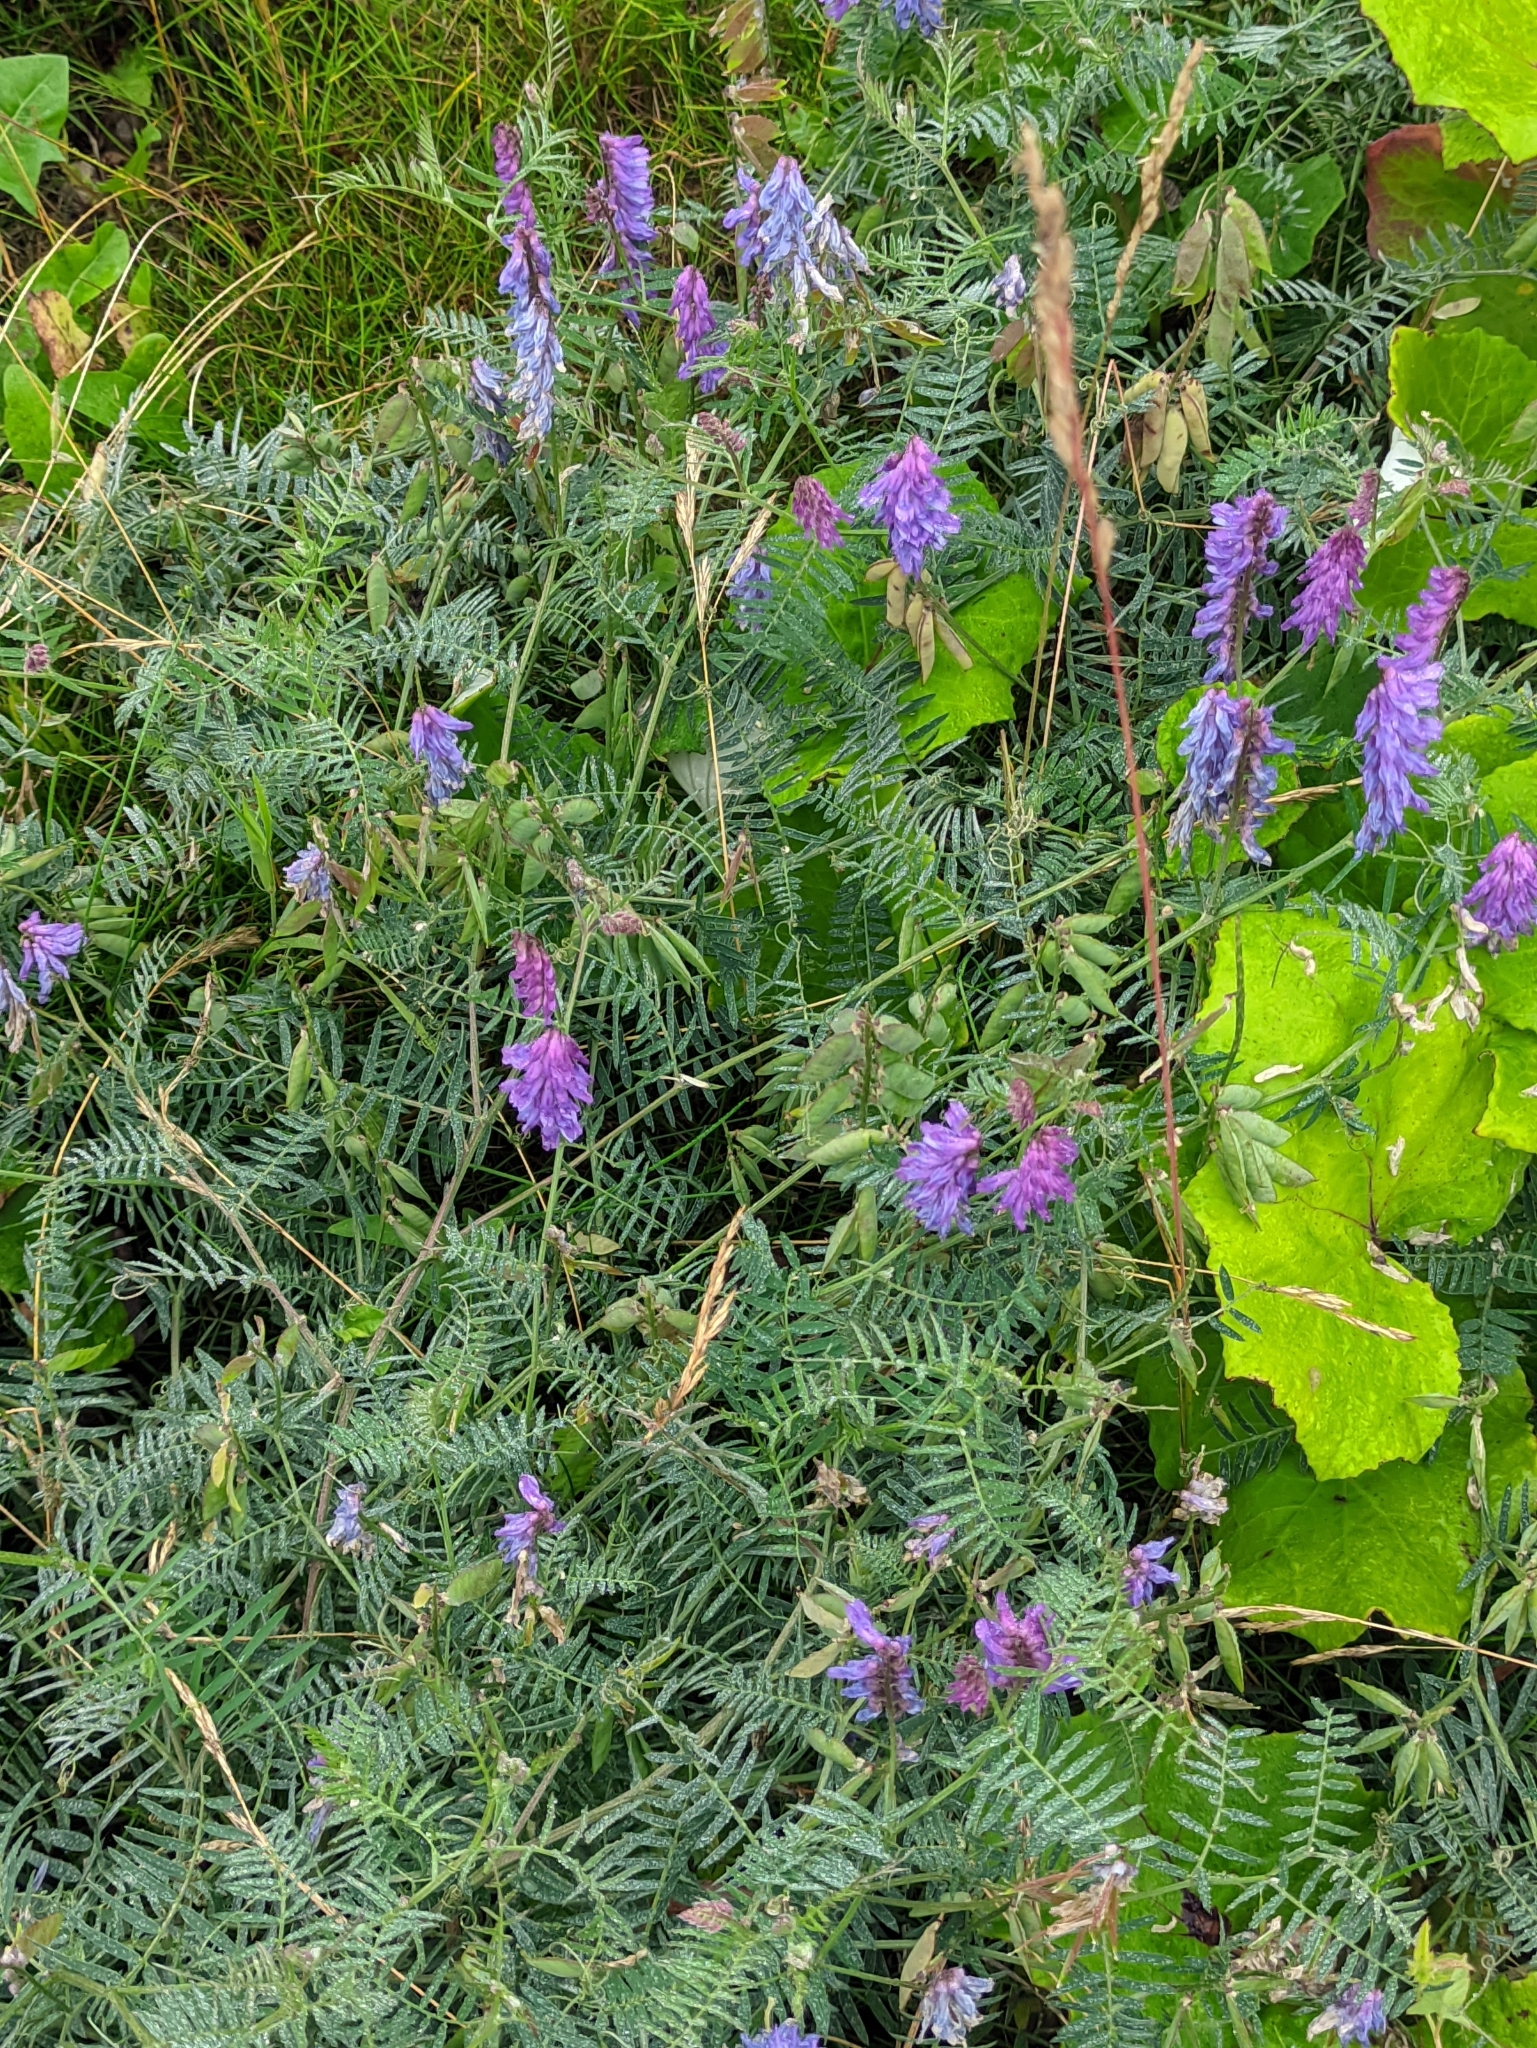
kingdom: Plantae
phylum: Tracheophyta
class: Magnoliopsida
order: Fabales
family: Fabaceae
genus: Vicia
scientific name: Vicia cracca
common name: Bird vetch
